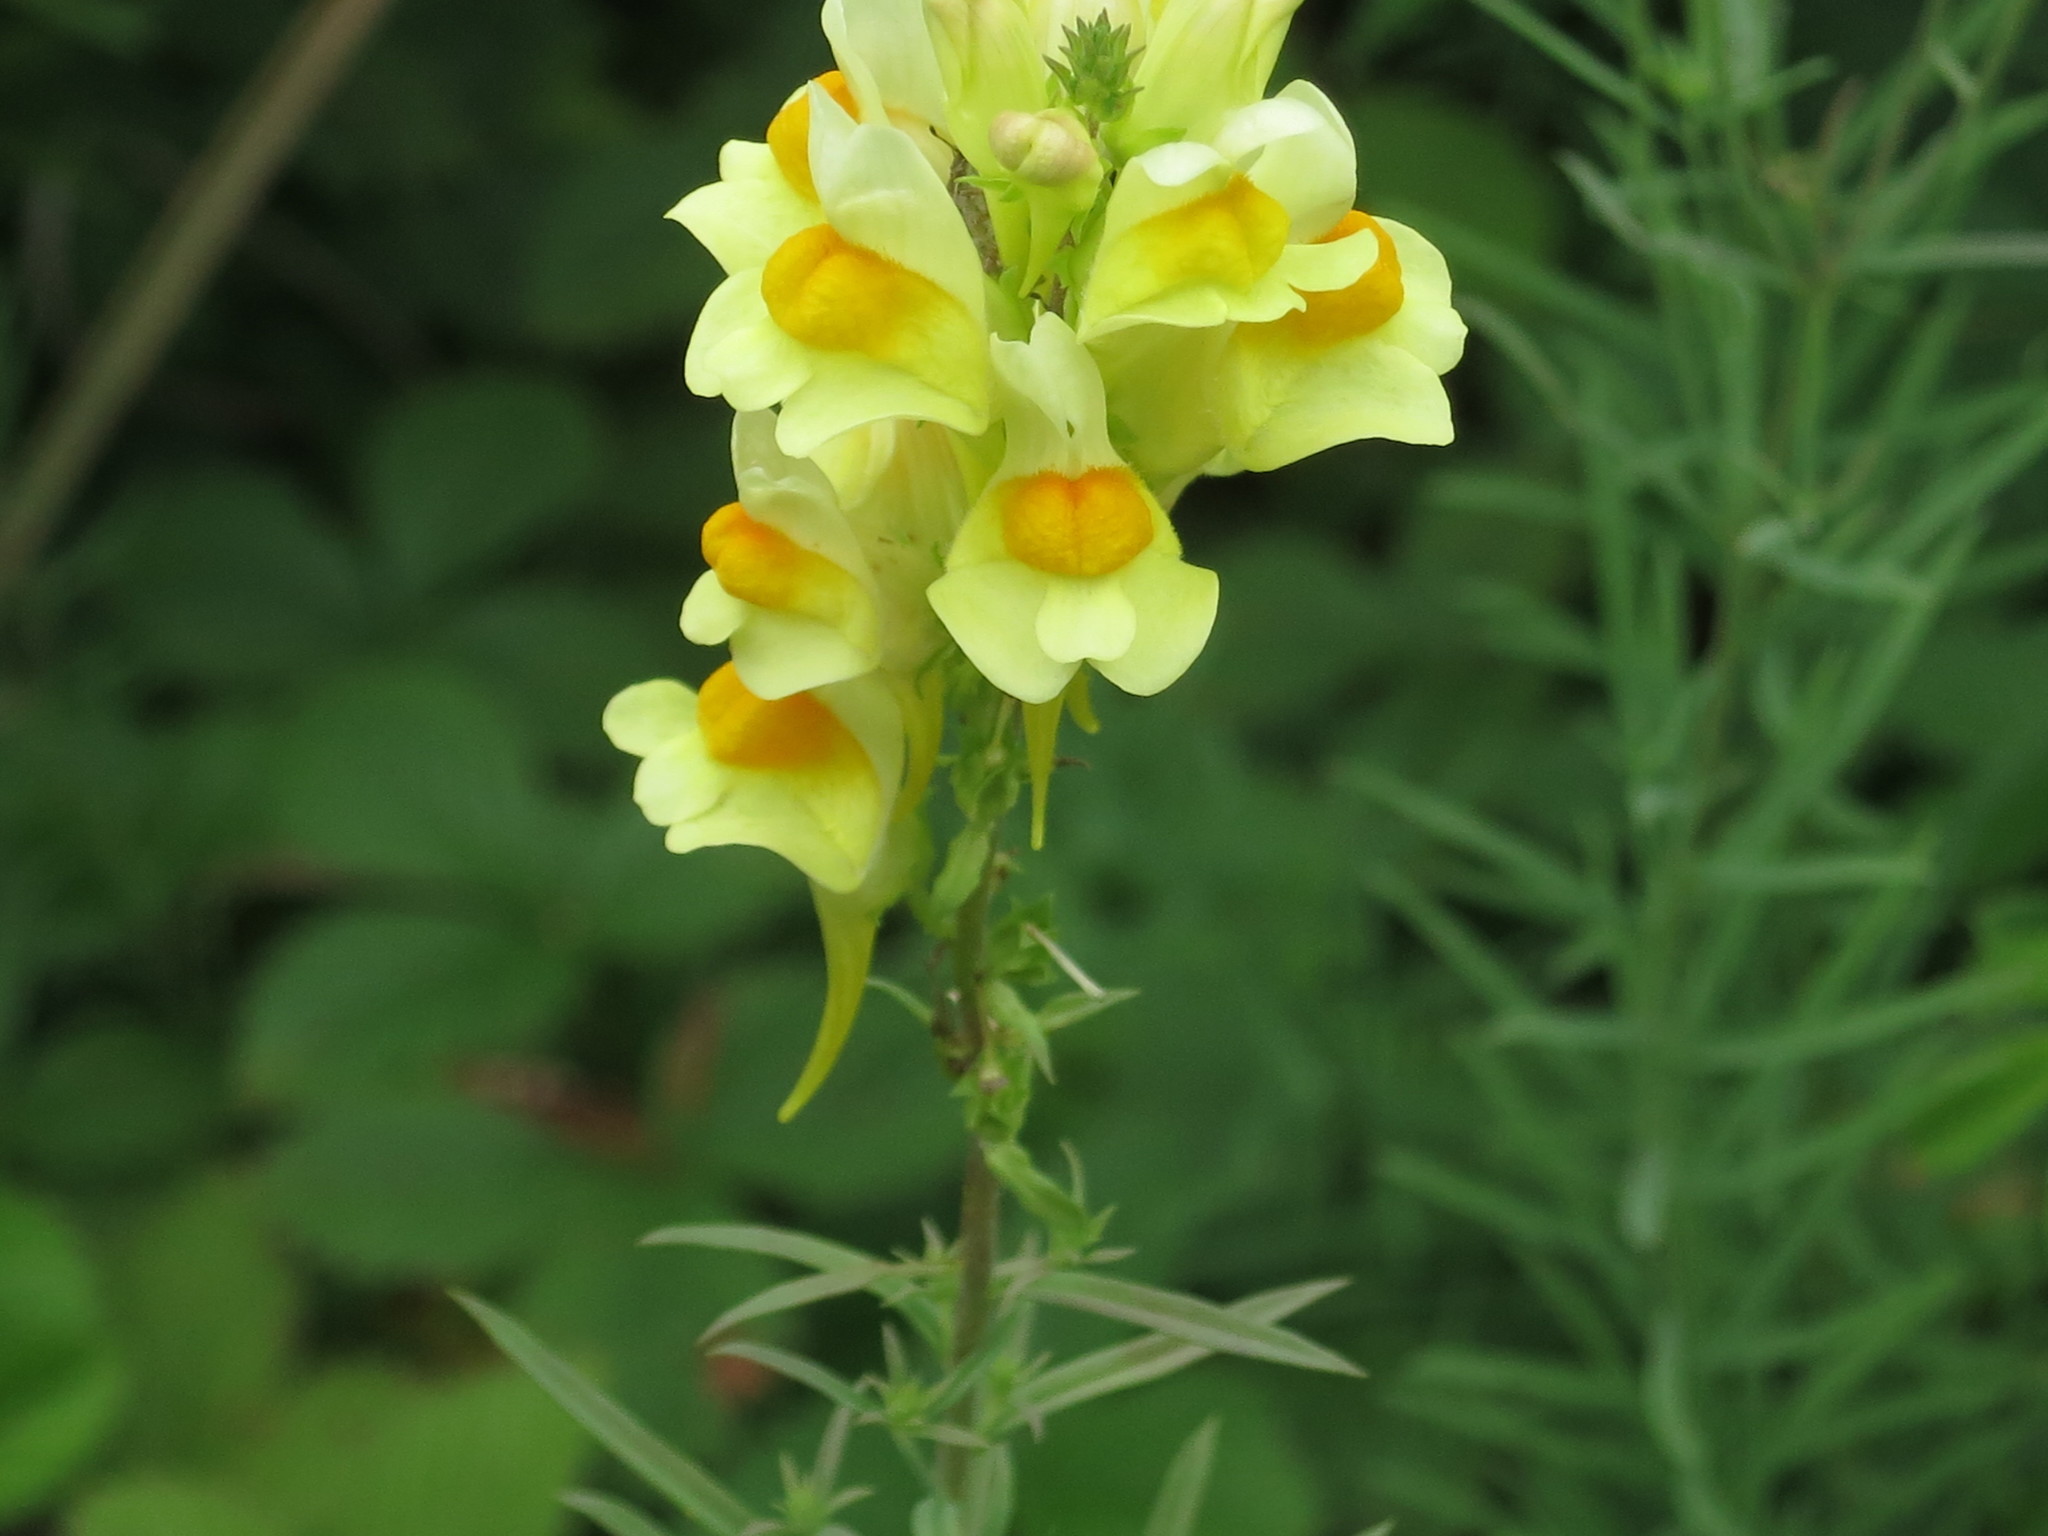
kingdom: Plantae
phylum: Tracheophyta
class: Magnoliopsida
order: Lamiales
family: Plantaginaceae
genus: Linaria
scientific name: Linaria vulgaris
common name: Butter and eggs
